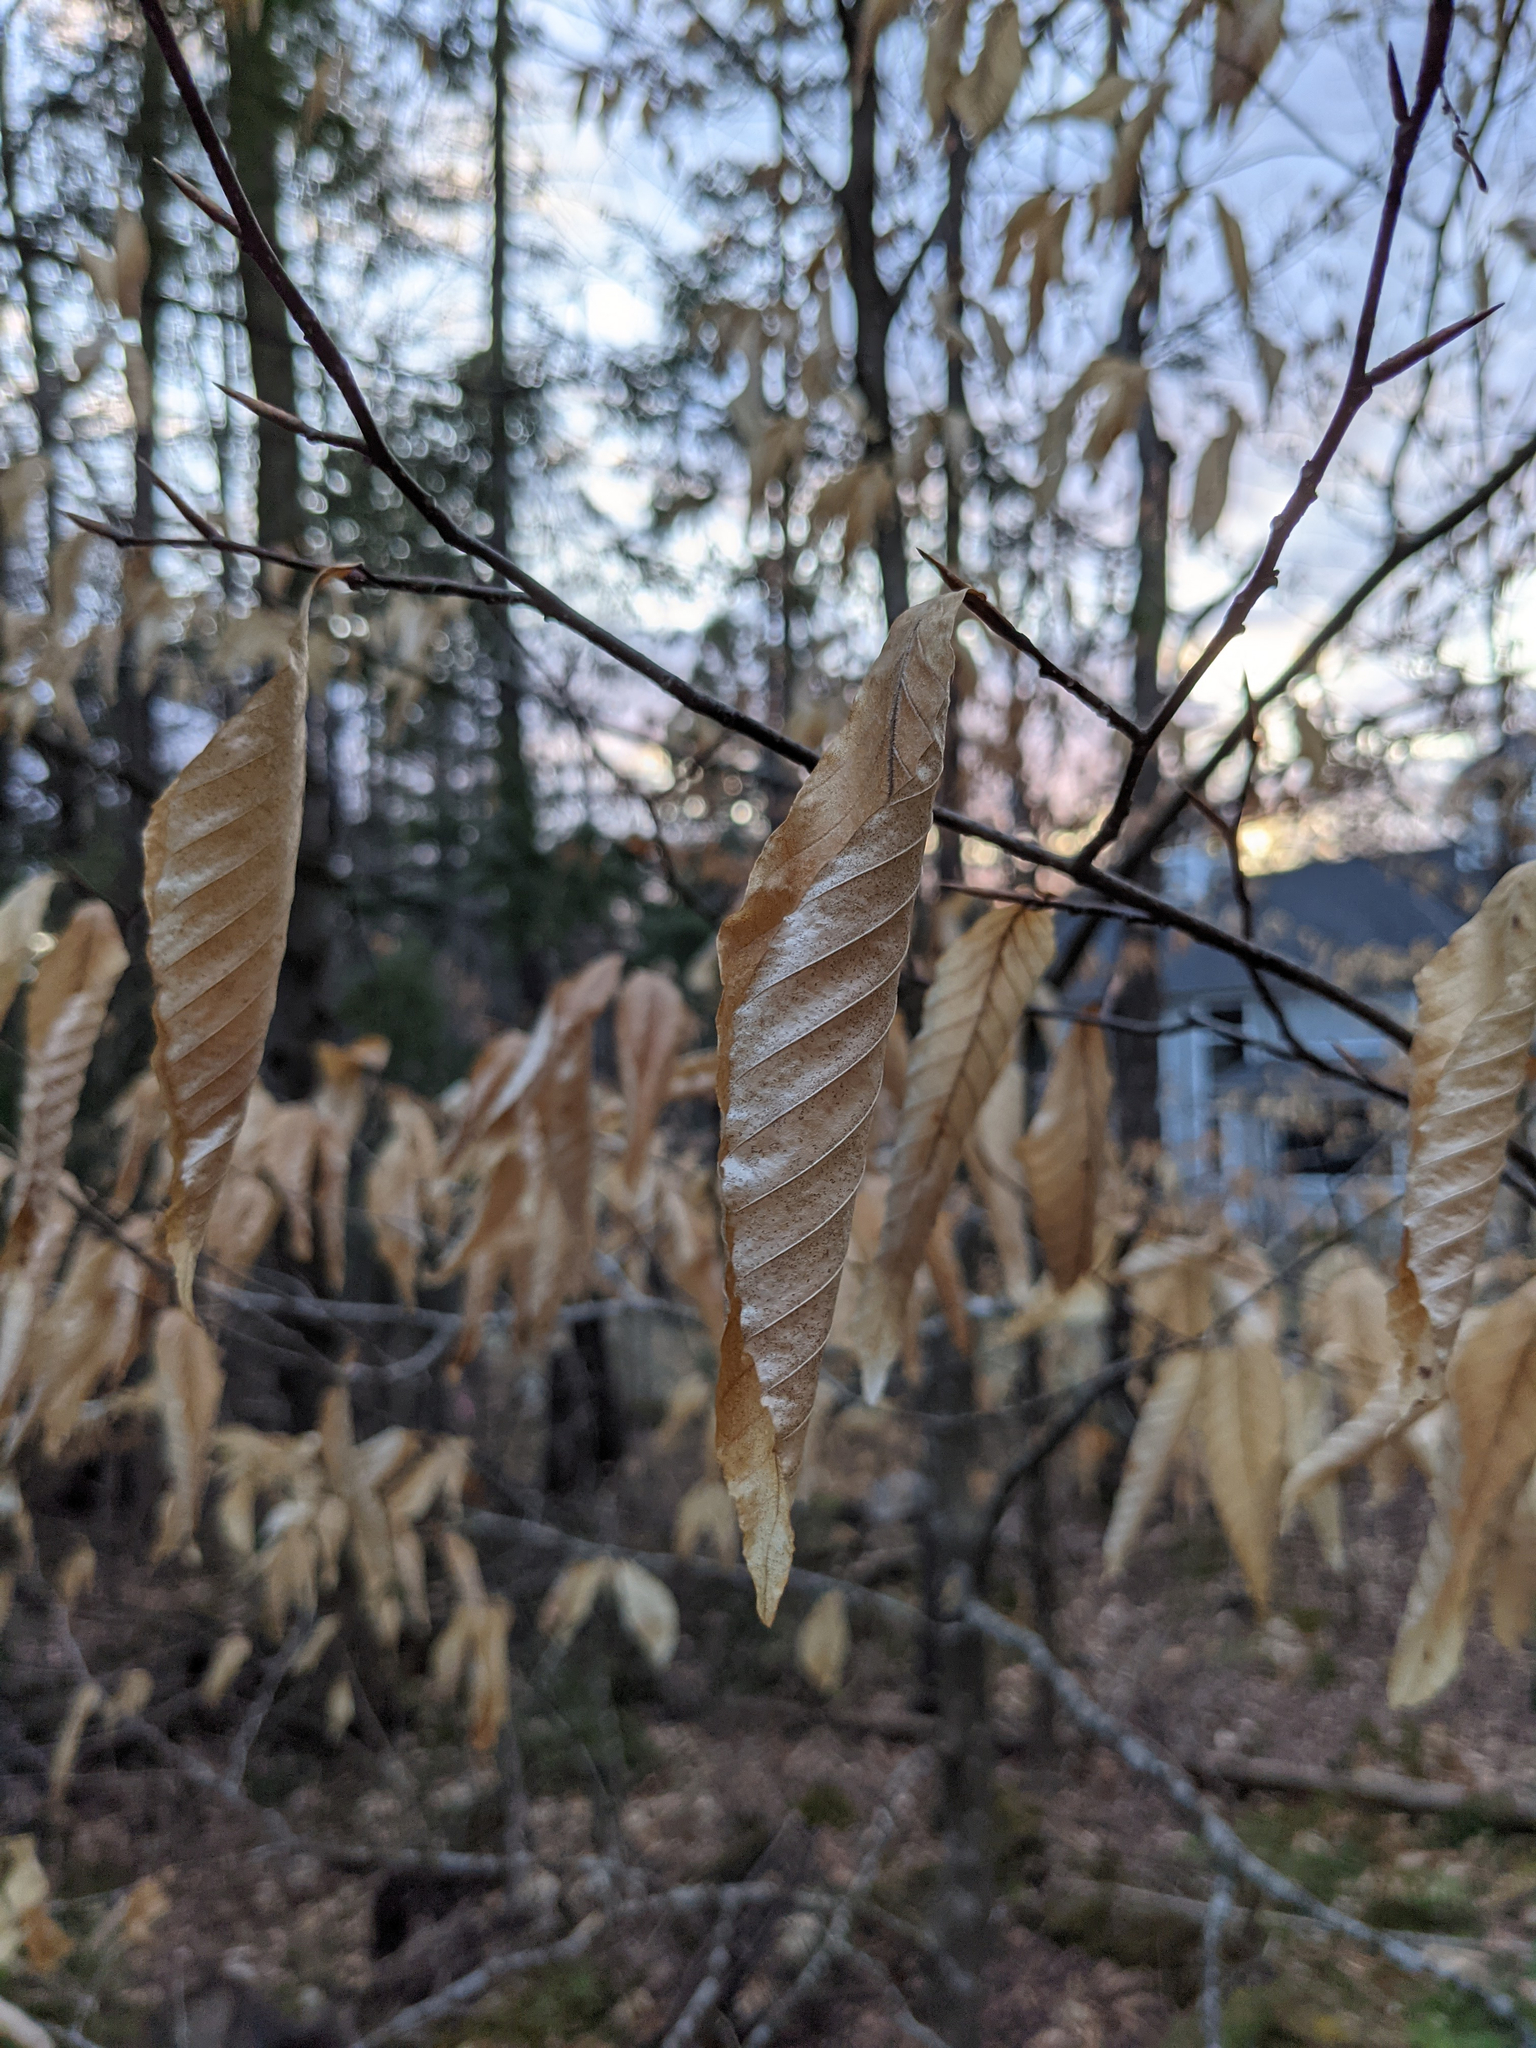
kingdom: Plantae
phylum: Tracheophyta
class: Magnoliopsida
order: Fagales
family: Fagaceae
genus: Fagus
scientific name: Fagus grandifolia
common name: American beech
